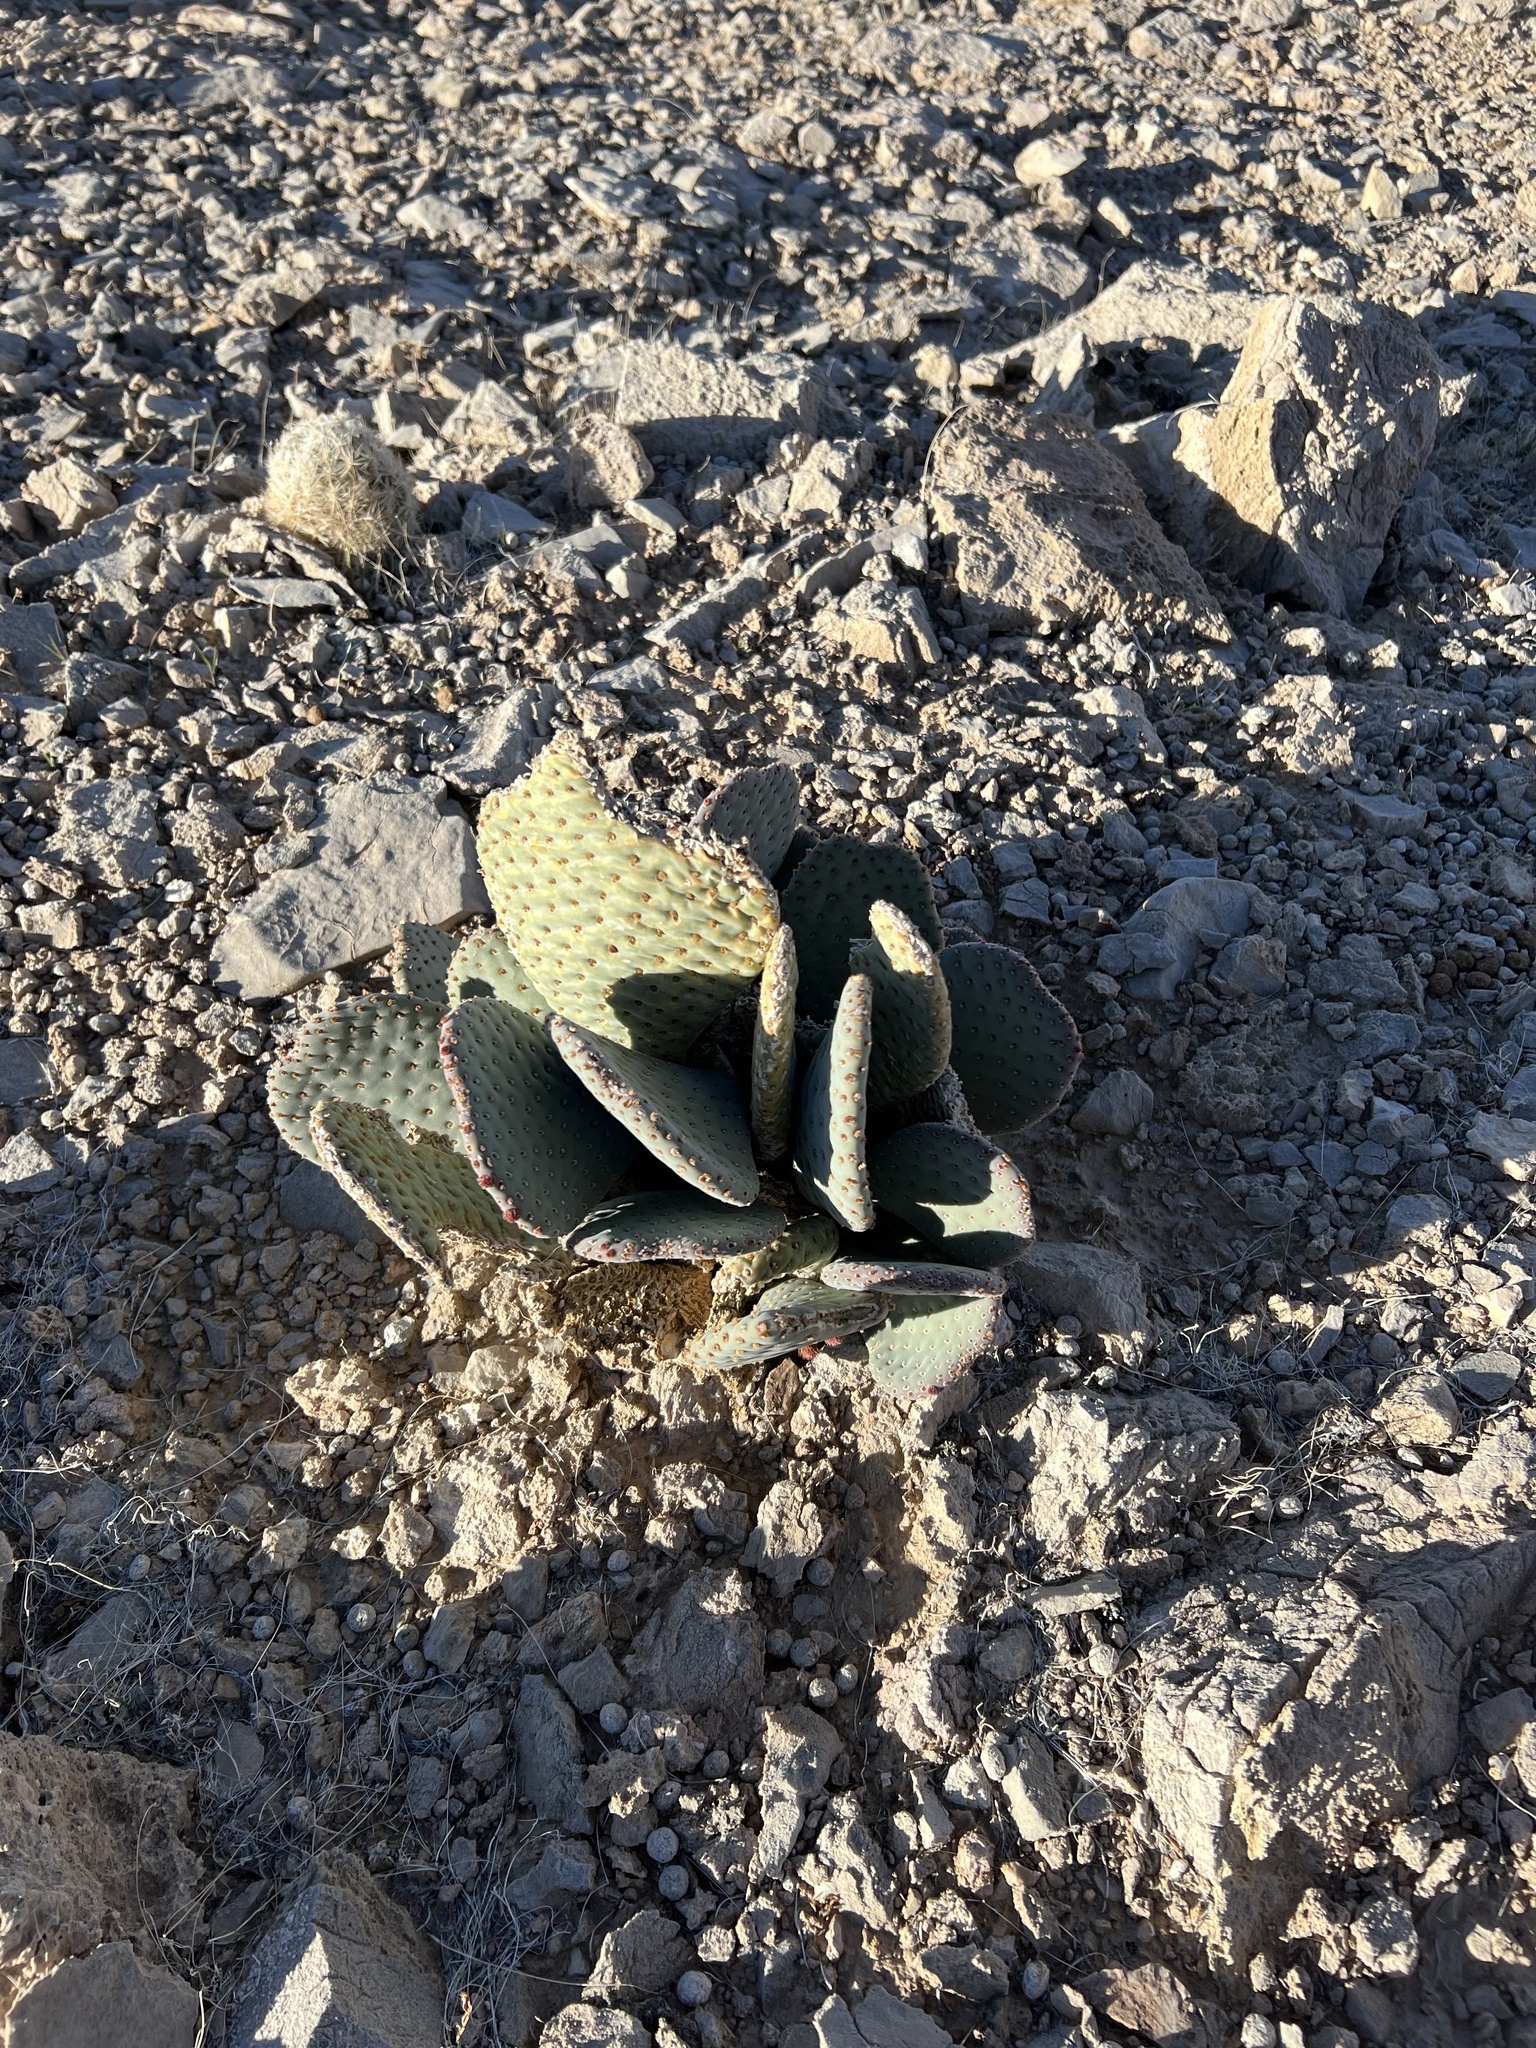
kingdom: Plantae
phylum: Tracheophyta
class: Magnoliopsida
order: Caryophyllales
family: Cactaceae
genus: Opuntia
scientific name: Opuntia basilaris
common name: Beavertail prickly-pear
